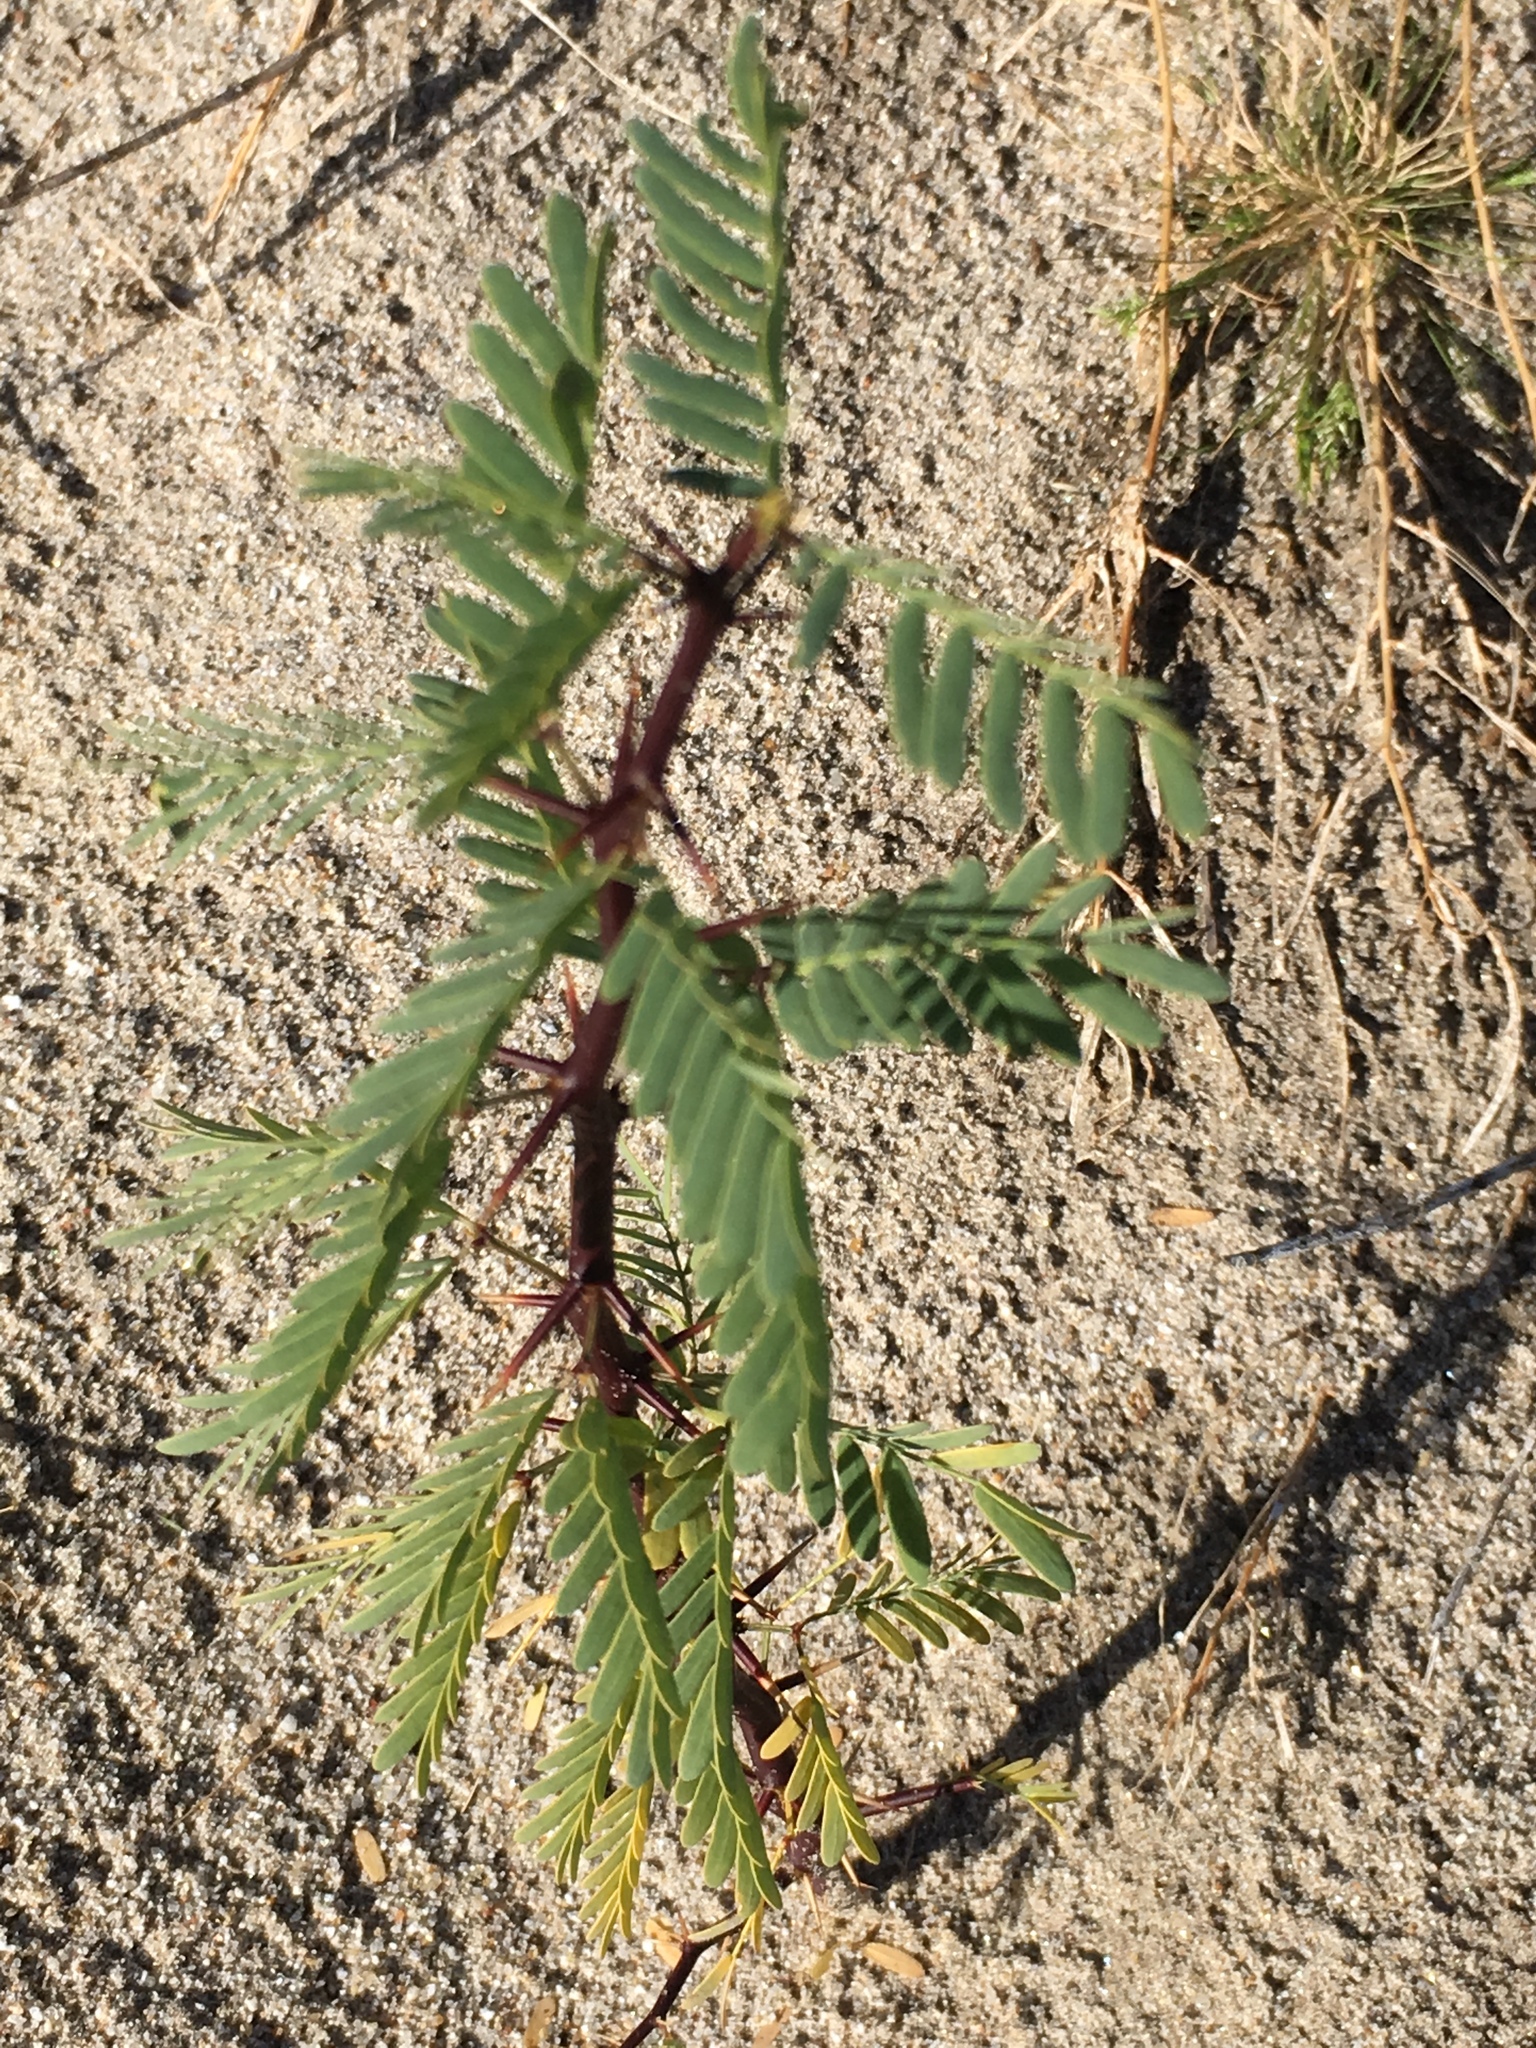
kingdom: Plantae
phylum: Tracheophyta
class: Magnoliopsida
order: Fabales
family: Fabaceae
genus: Prosopis
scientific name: Prosopis pubescens
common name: Screw-bean
